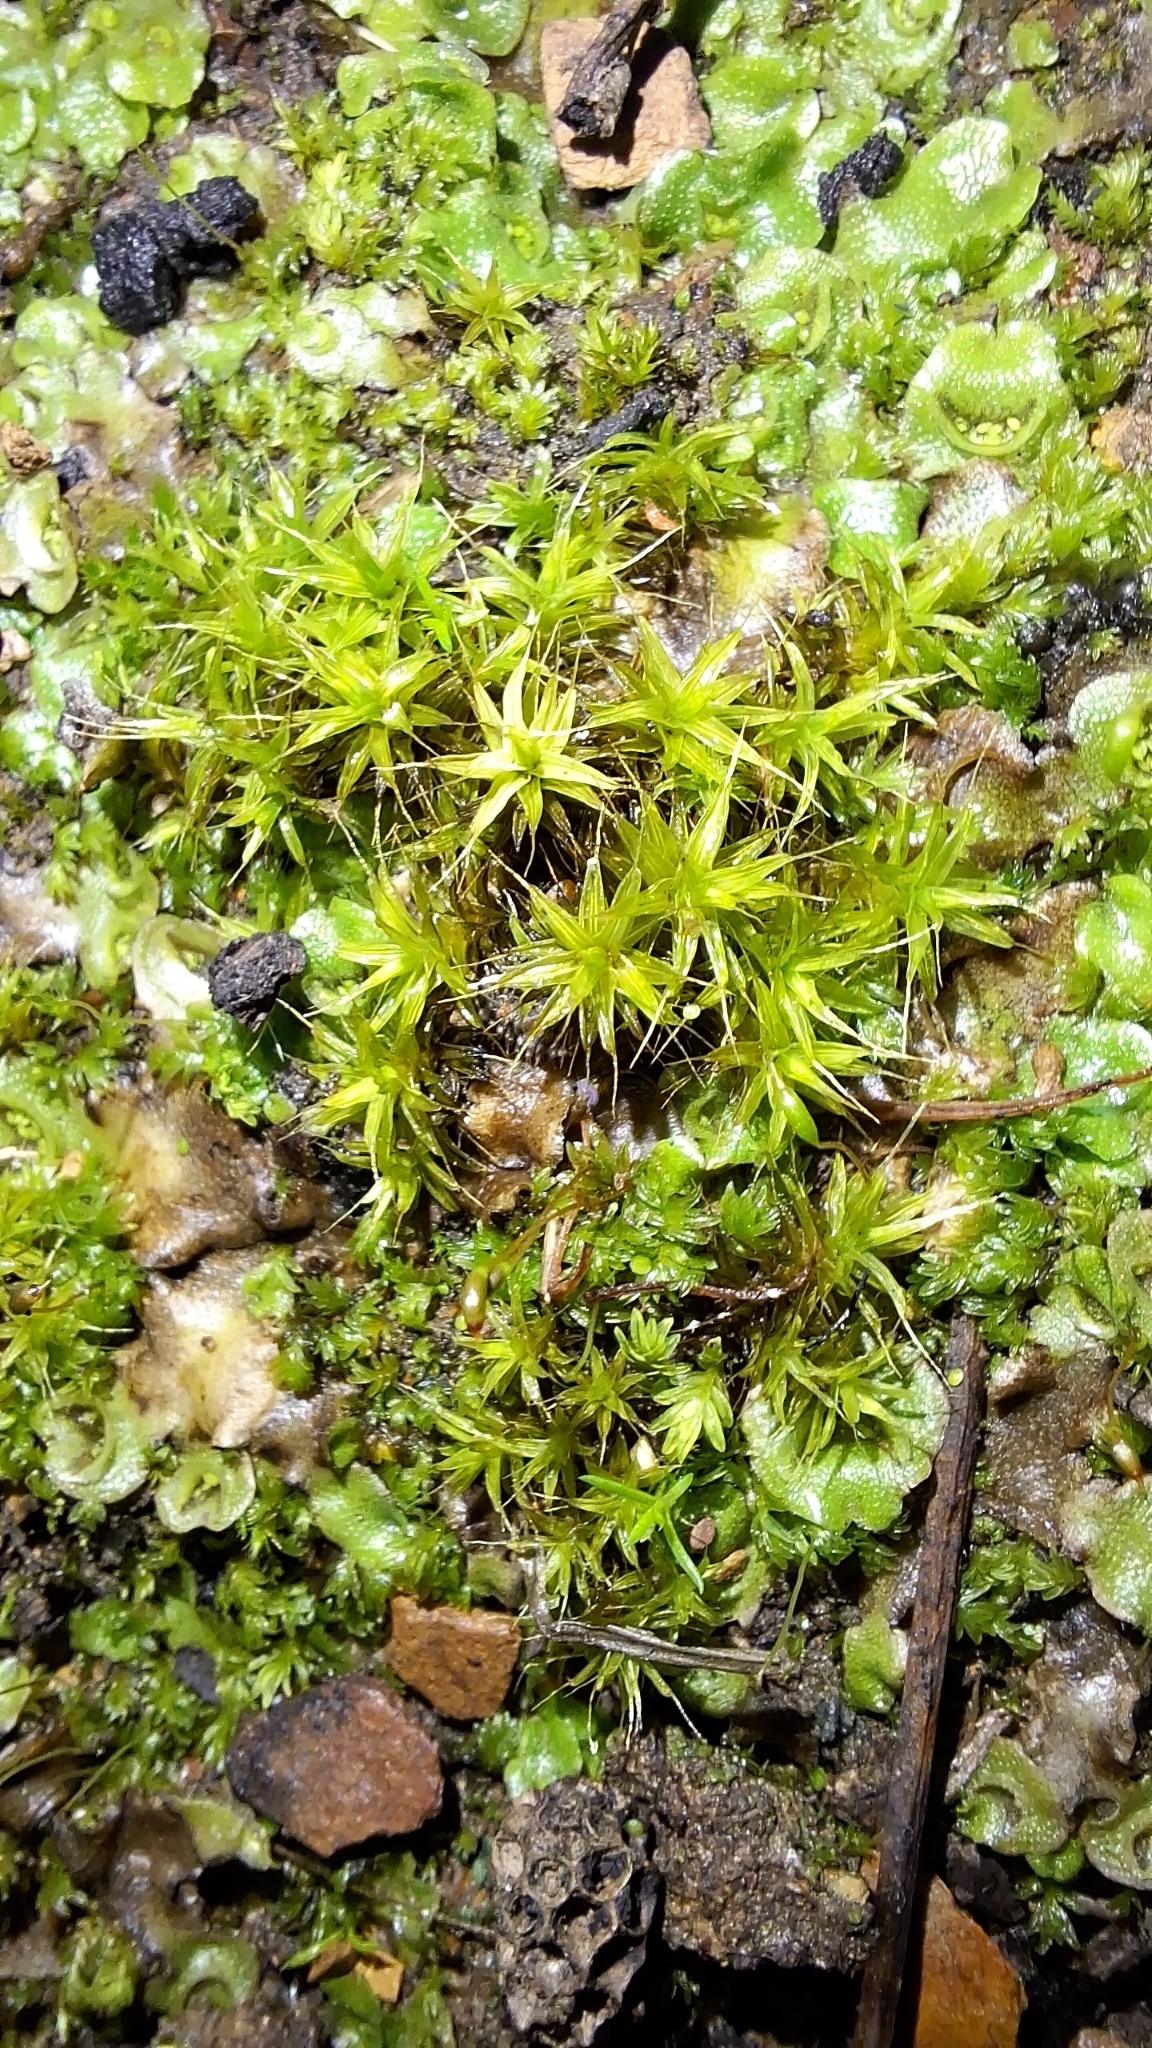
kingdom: Plantae
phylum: Bryophyta
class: Bryopsida
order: Pottiales
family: Pottiaceae
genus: Pseudocrossidium
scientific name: Pseudocrossidium crinitum
